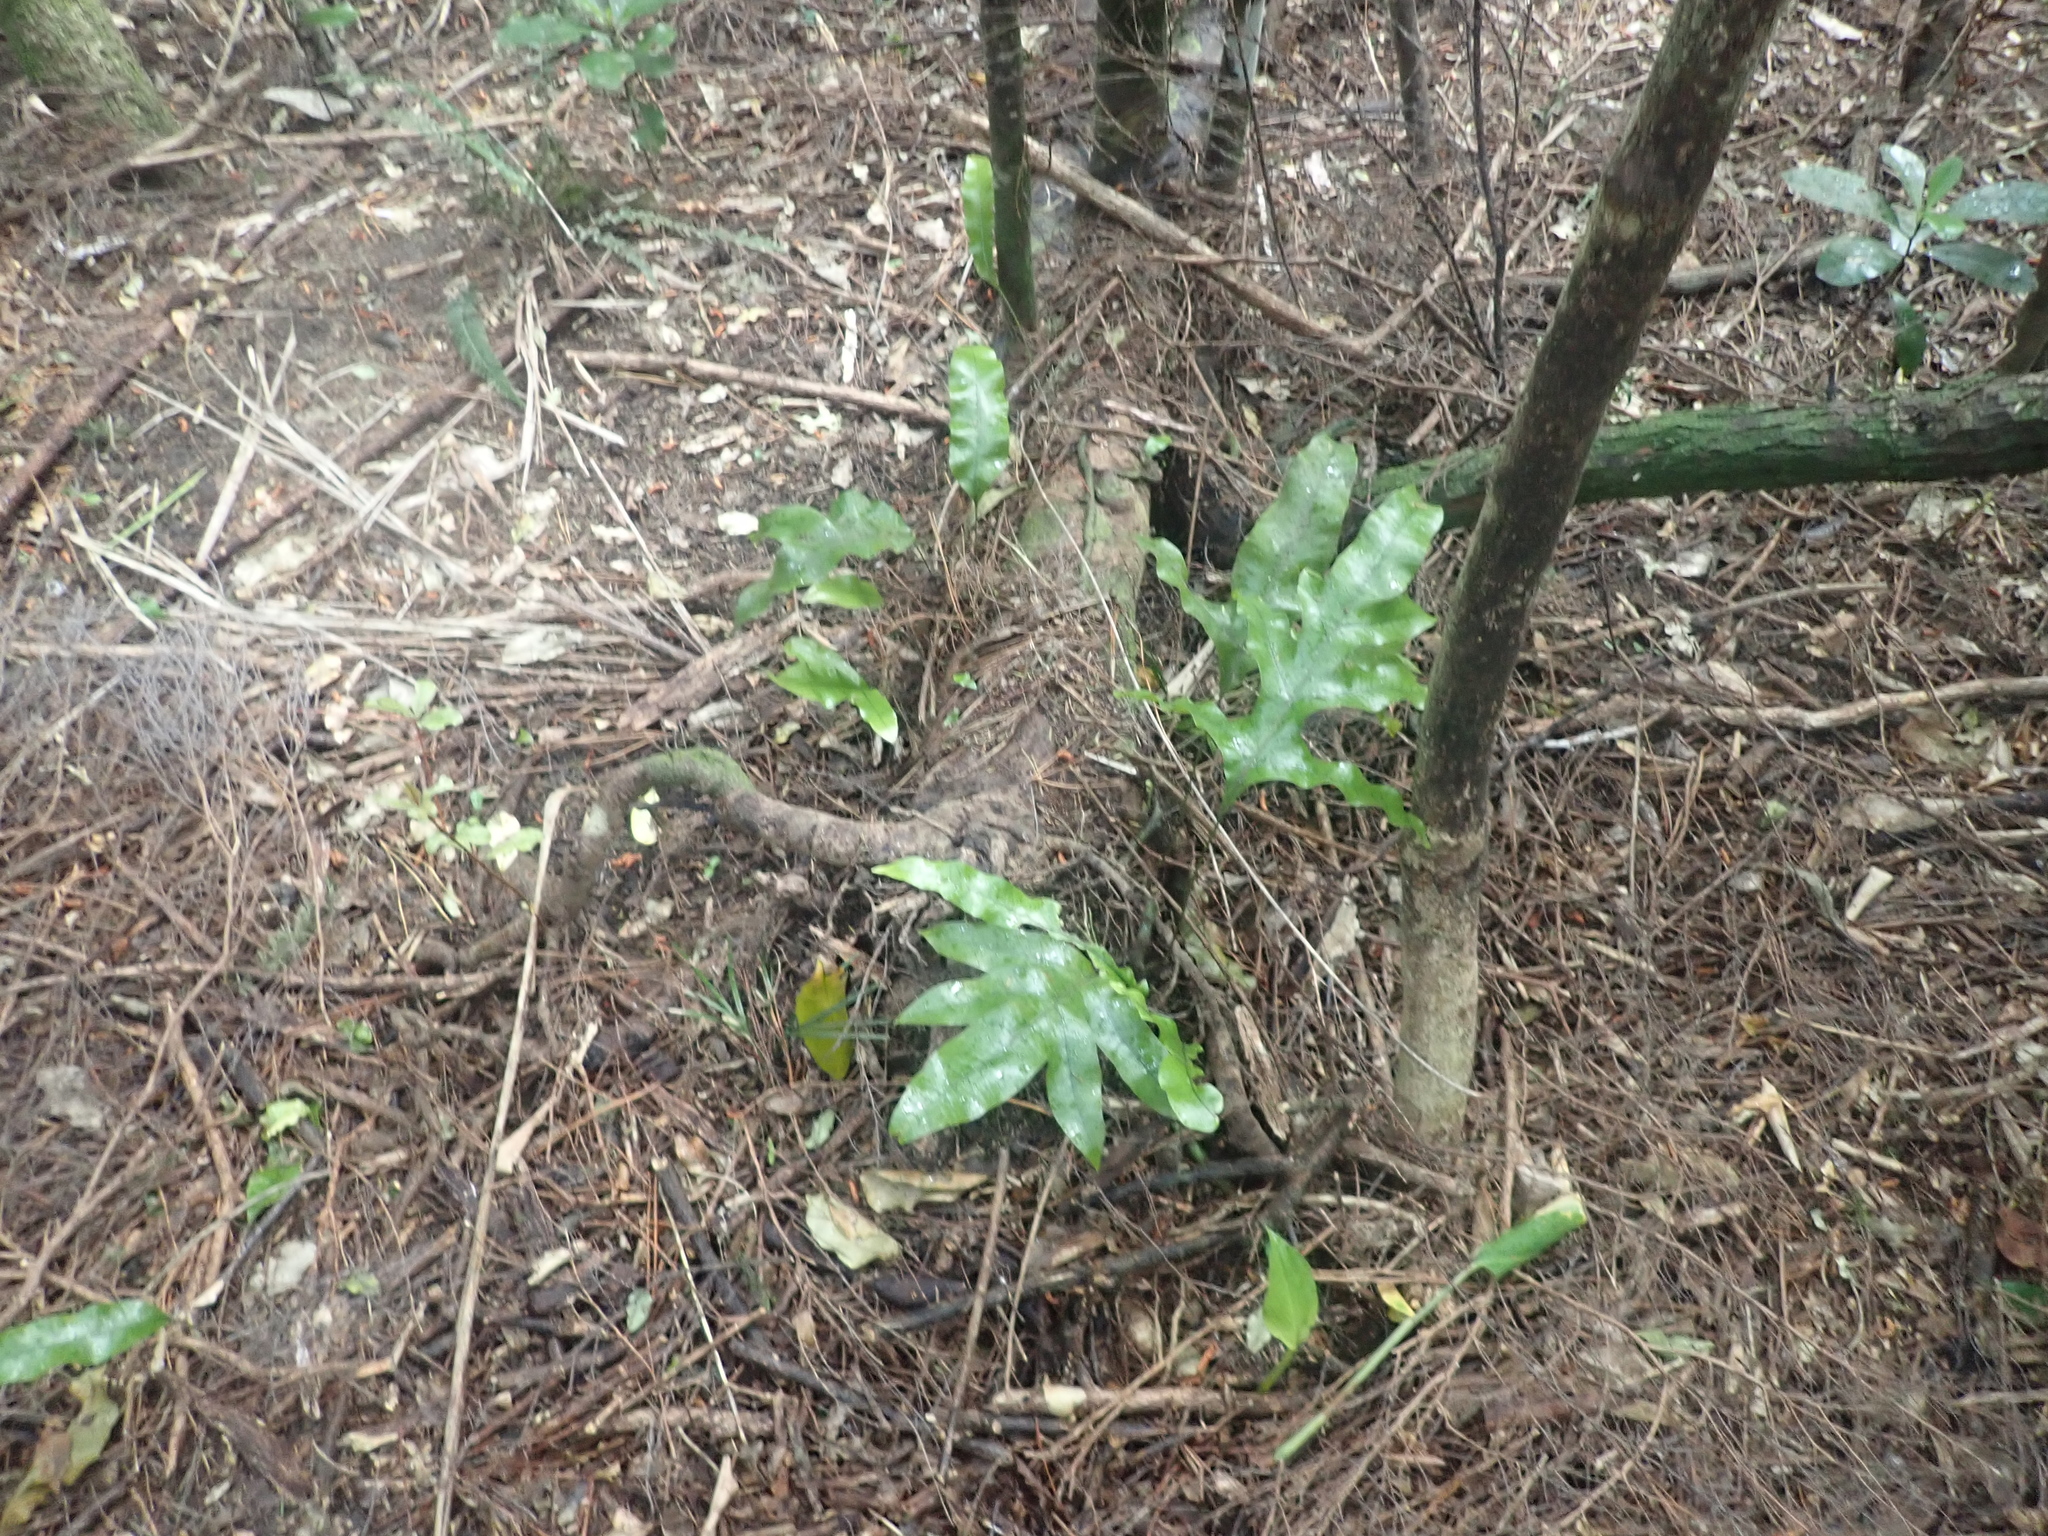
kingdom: Plantae
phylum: Tracheophyta
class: Polypodiopsida
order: Polypodiales
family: Polypodiaceae
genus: Lecanopteris
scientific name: Lecanopteris pustulata
